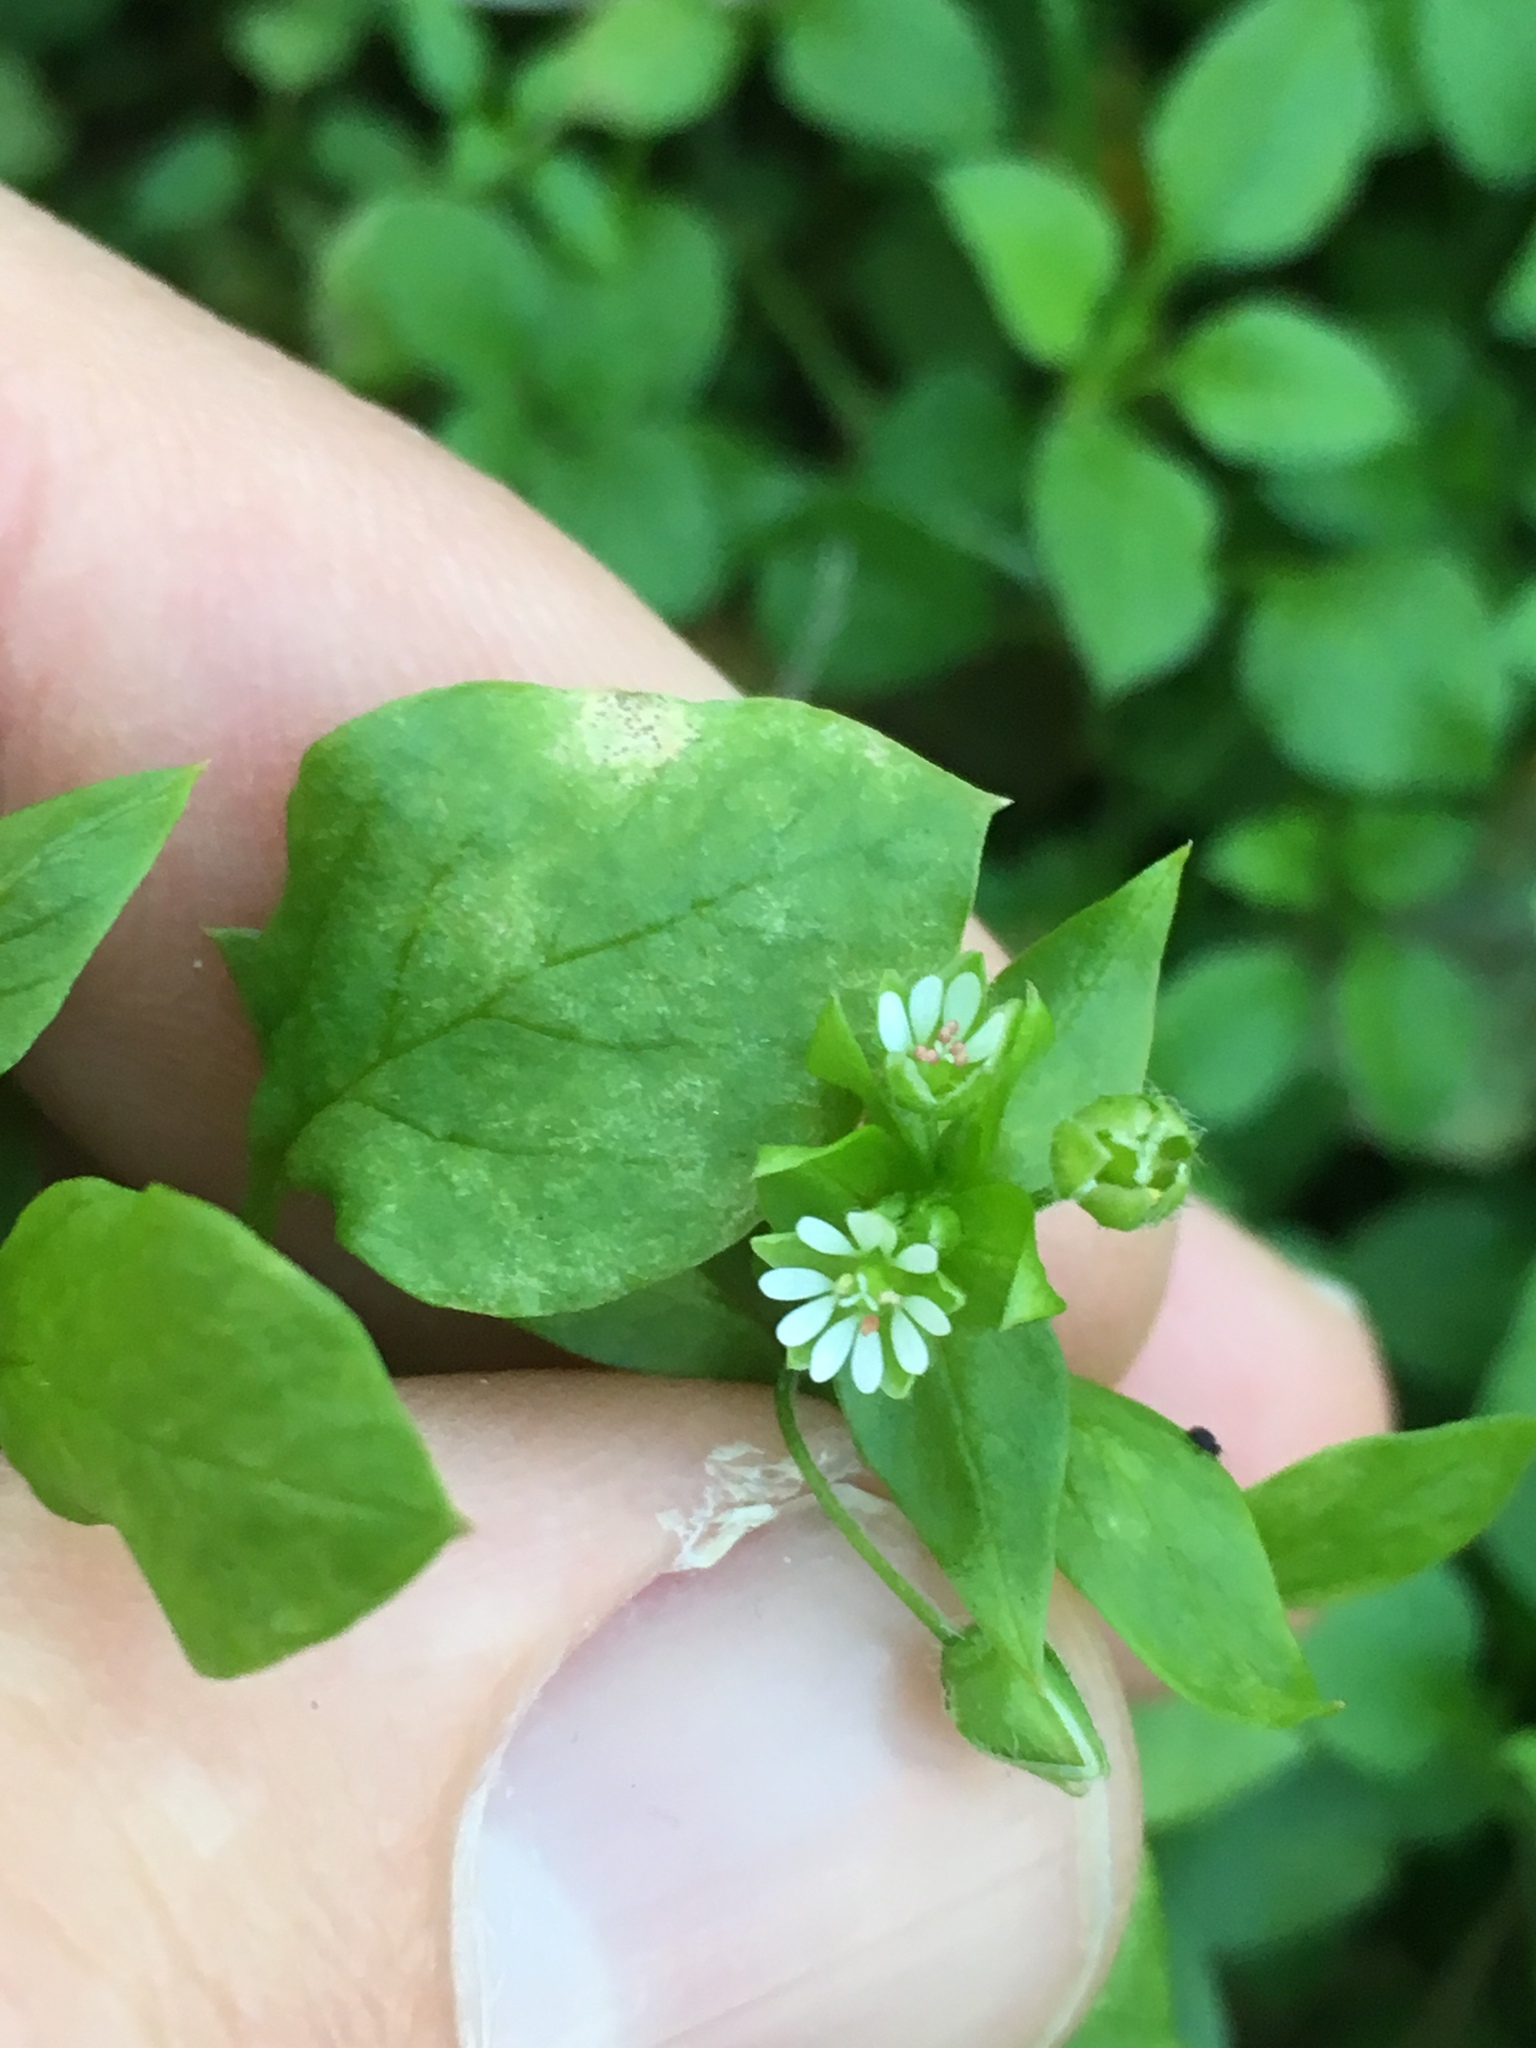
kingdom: Plantae
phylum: Tracheophyta
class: Magnoliopsida
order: Caryophyllales
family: Caryophyllaceae
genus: Stellaria
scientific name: Stellaria media
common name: Common chickweed
